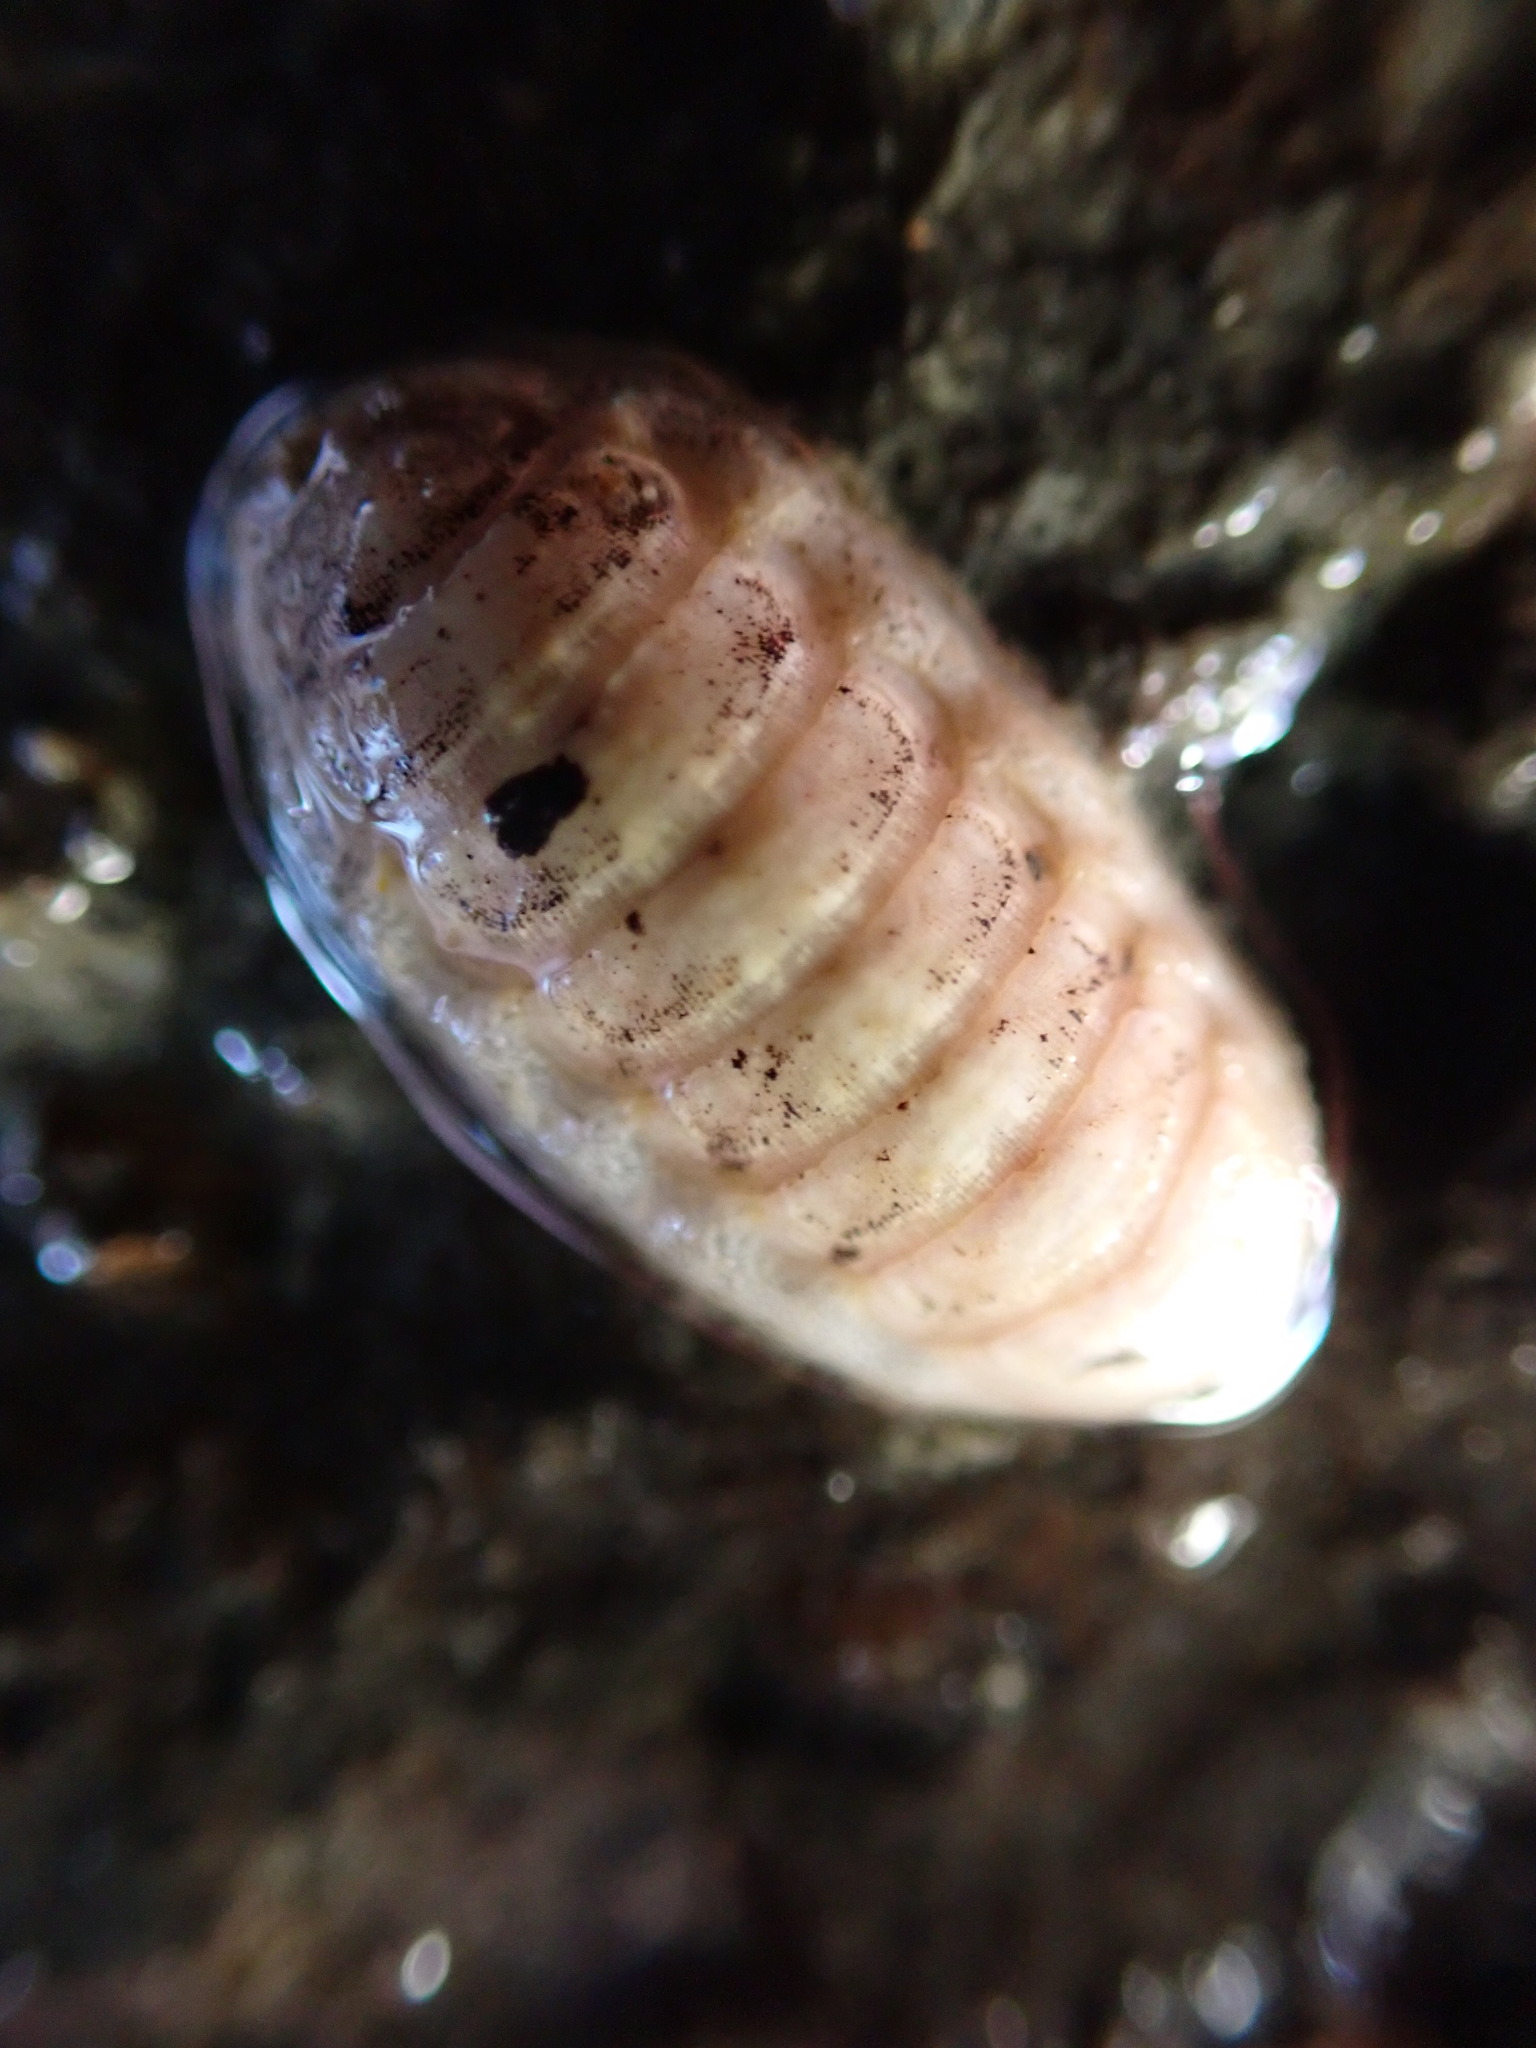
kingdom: Animalia
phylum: Mollusca
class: Polyplacophora
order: Lepidopleurida
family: Leptochitonidae
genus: Leptochiton
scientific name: Leptochiton inquinatus
